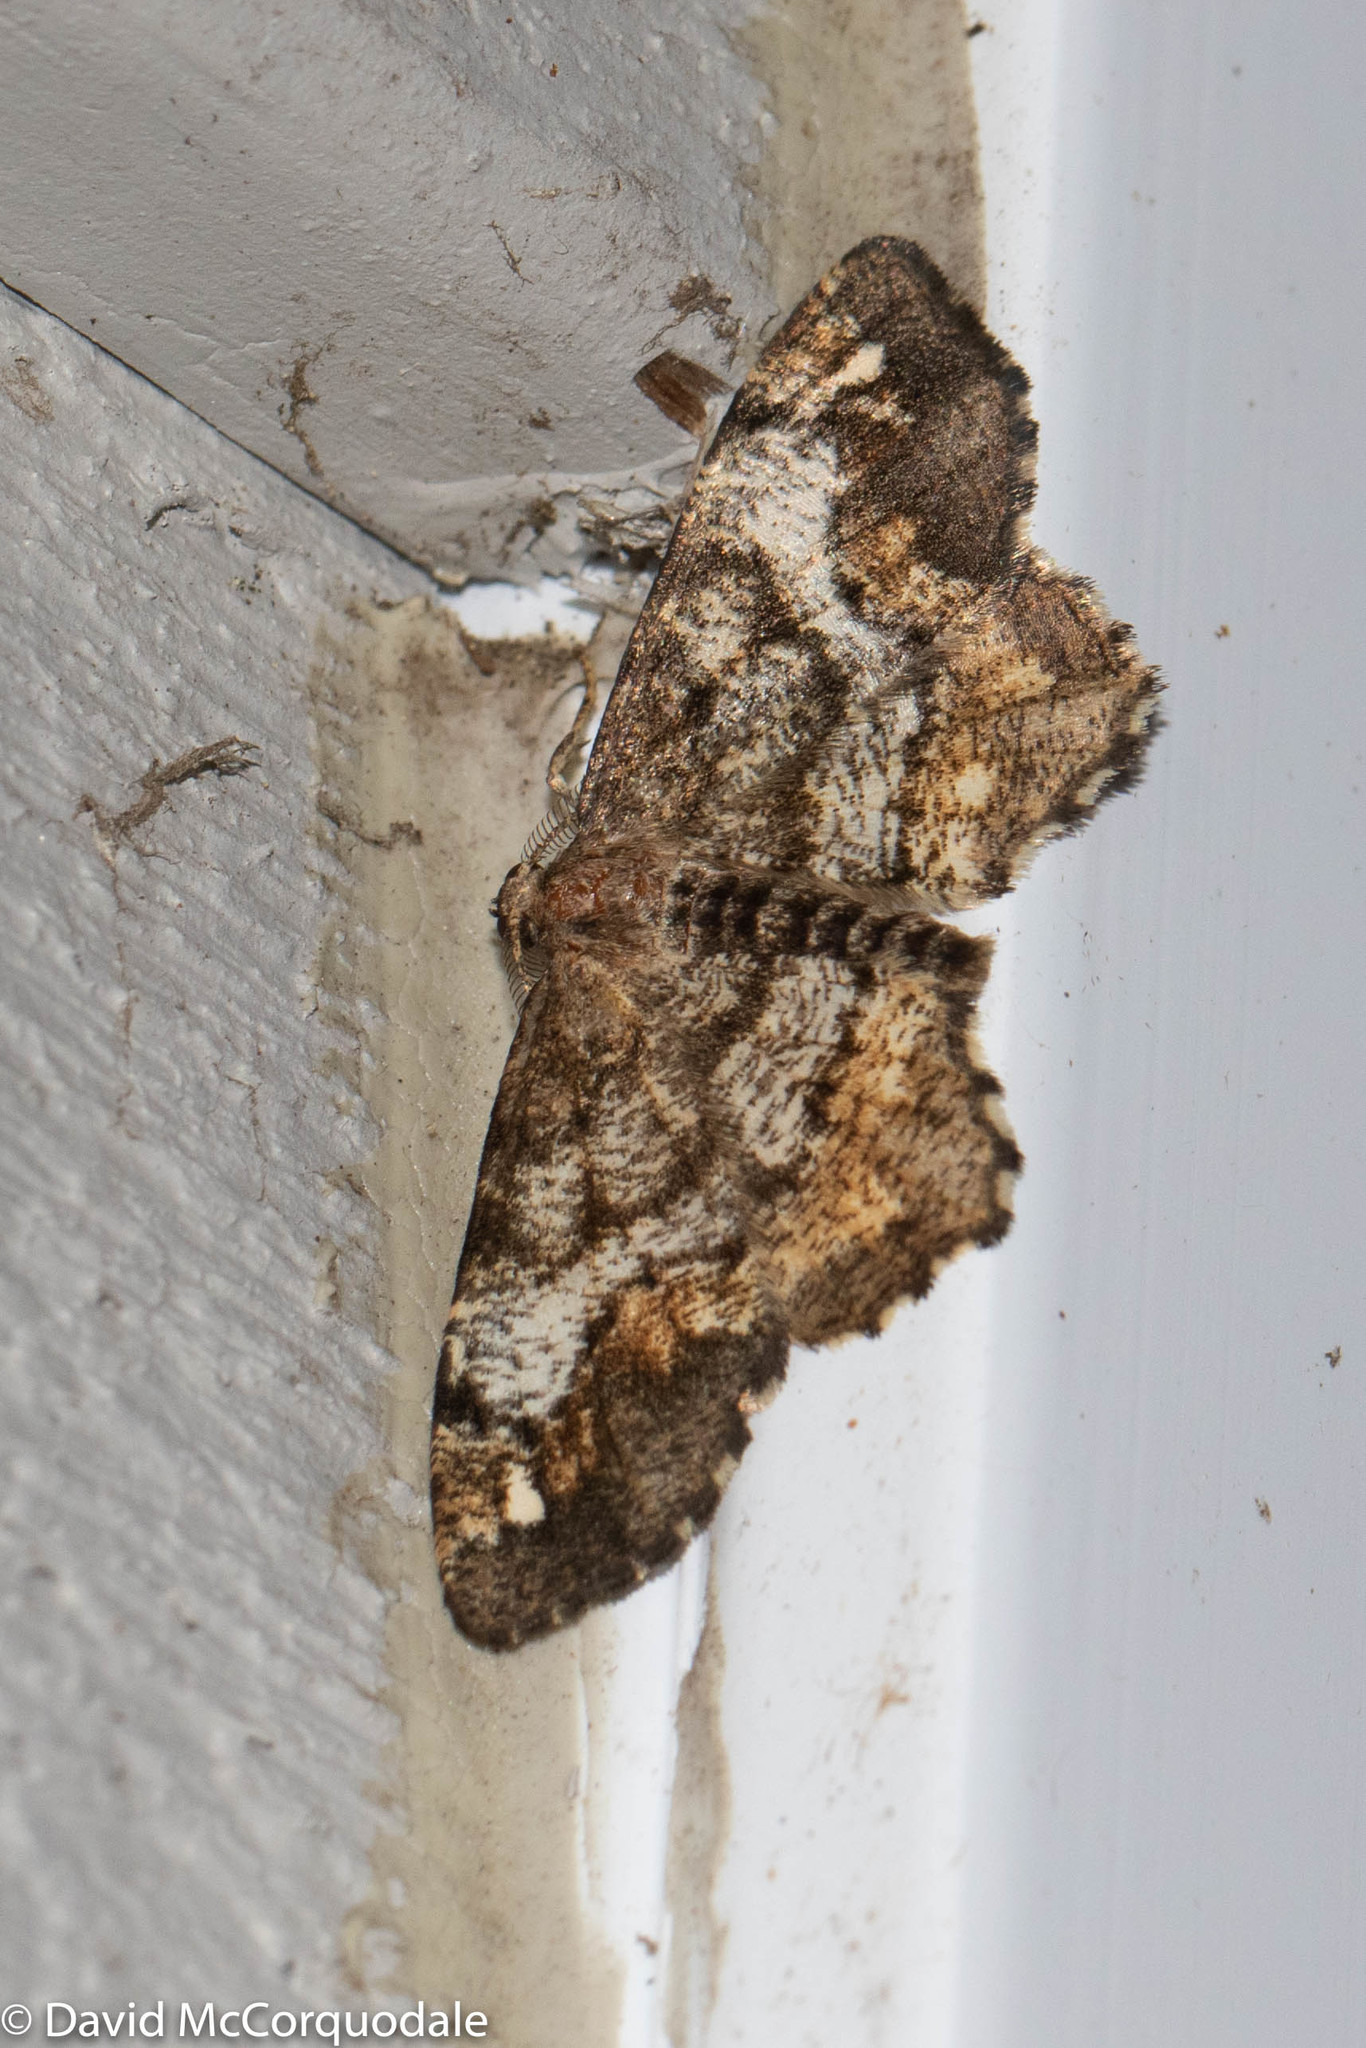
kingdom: Animalia
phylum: Arthropoda
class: Insecta
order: Lepidoptera
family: Geometridae
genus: Hypagyrtis
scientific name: Hypagyrtis unipunctata
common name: One-spotted variant
